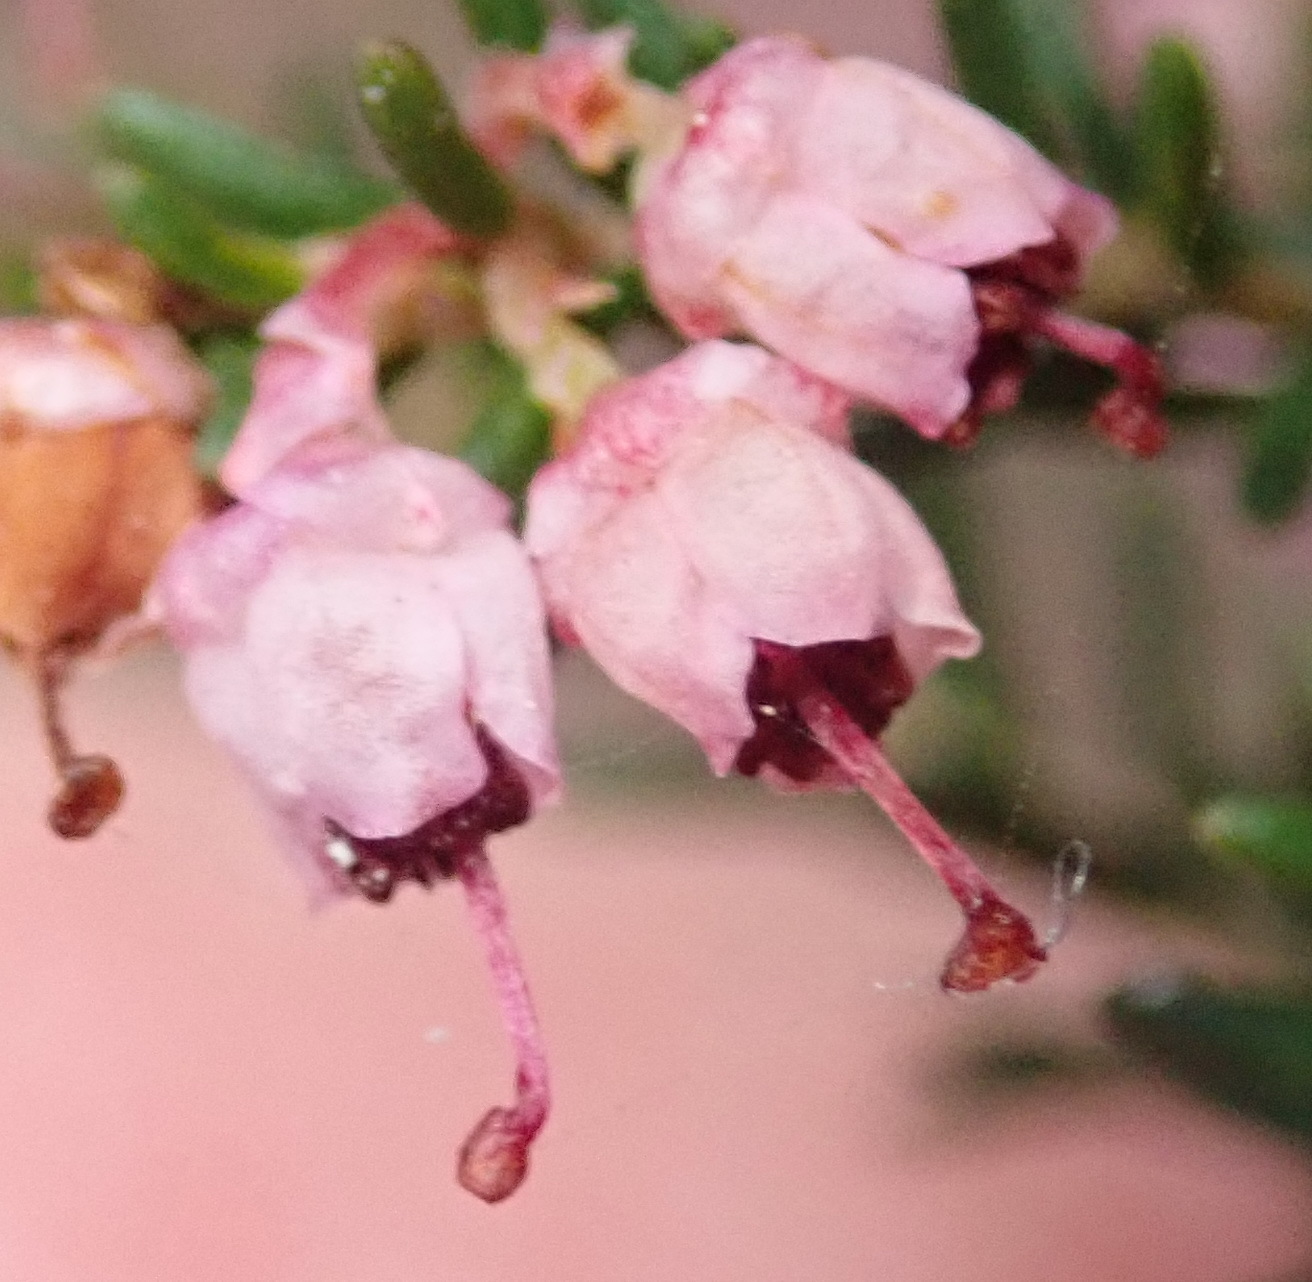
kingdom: Plantae
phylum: Tracheophyta
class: Magnoliopsida
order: Ericales
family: Ericaceae
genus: Erica
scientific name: Erica sparsa
